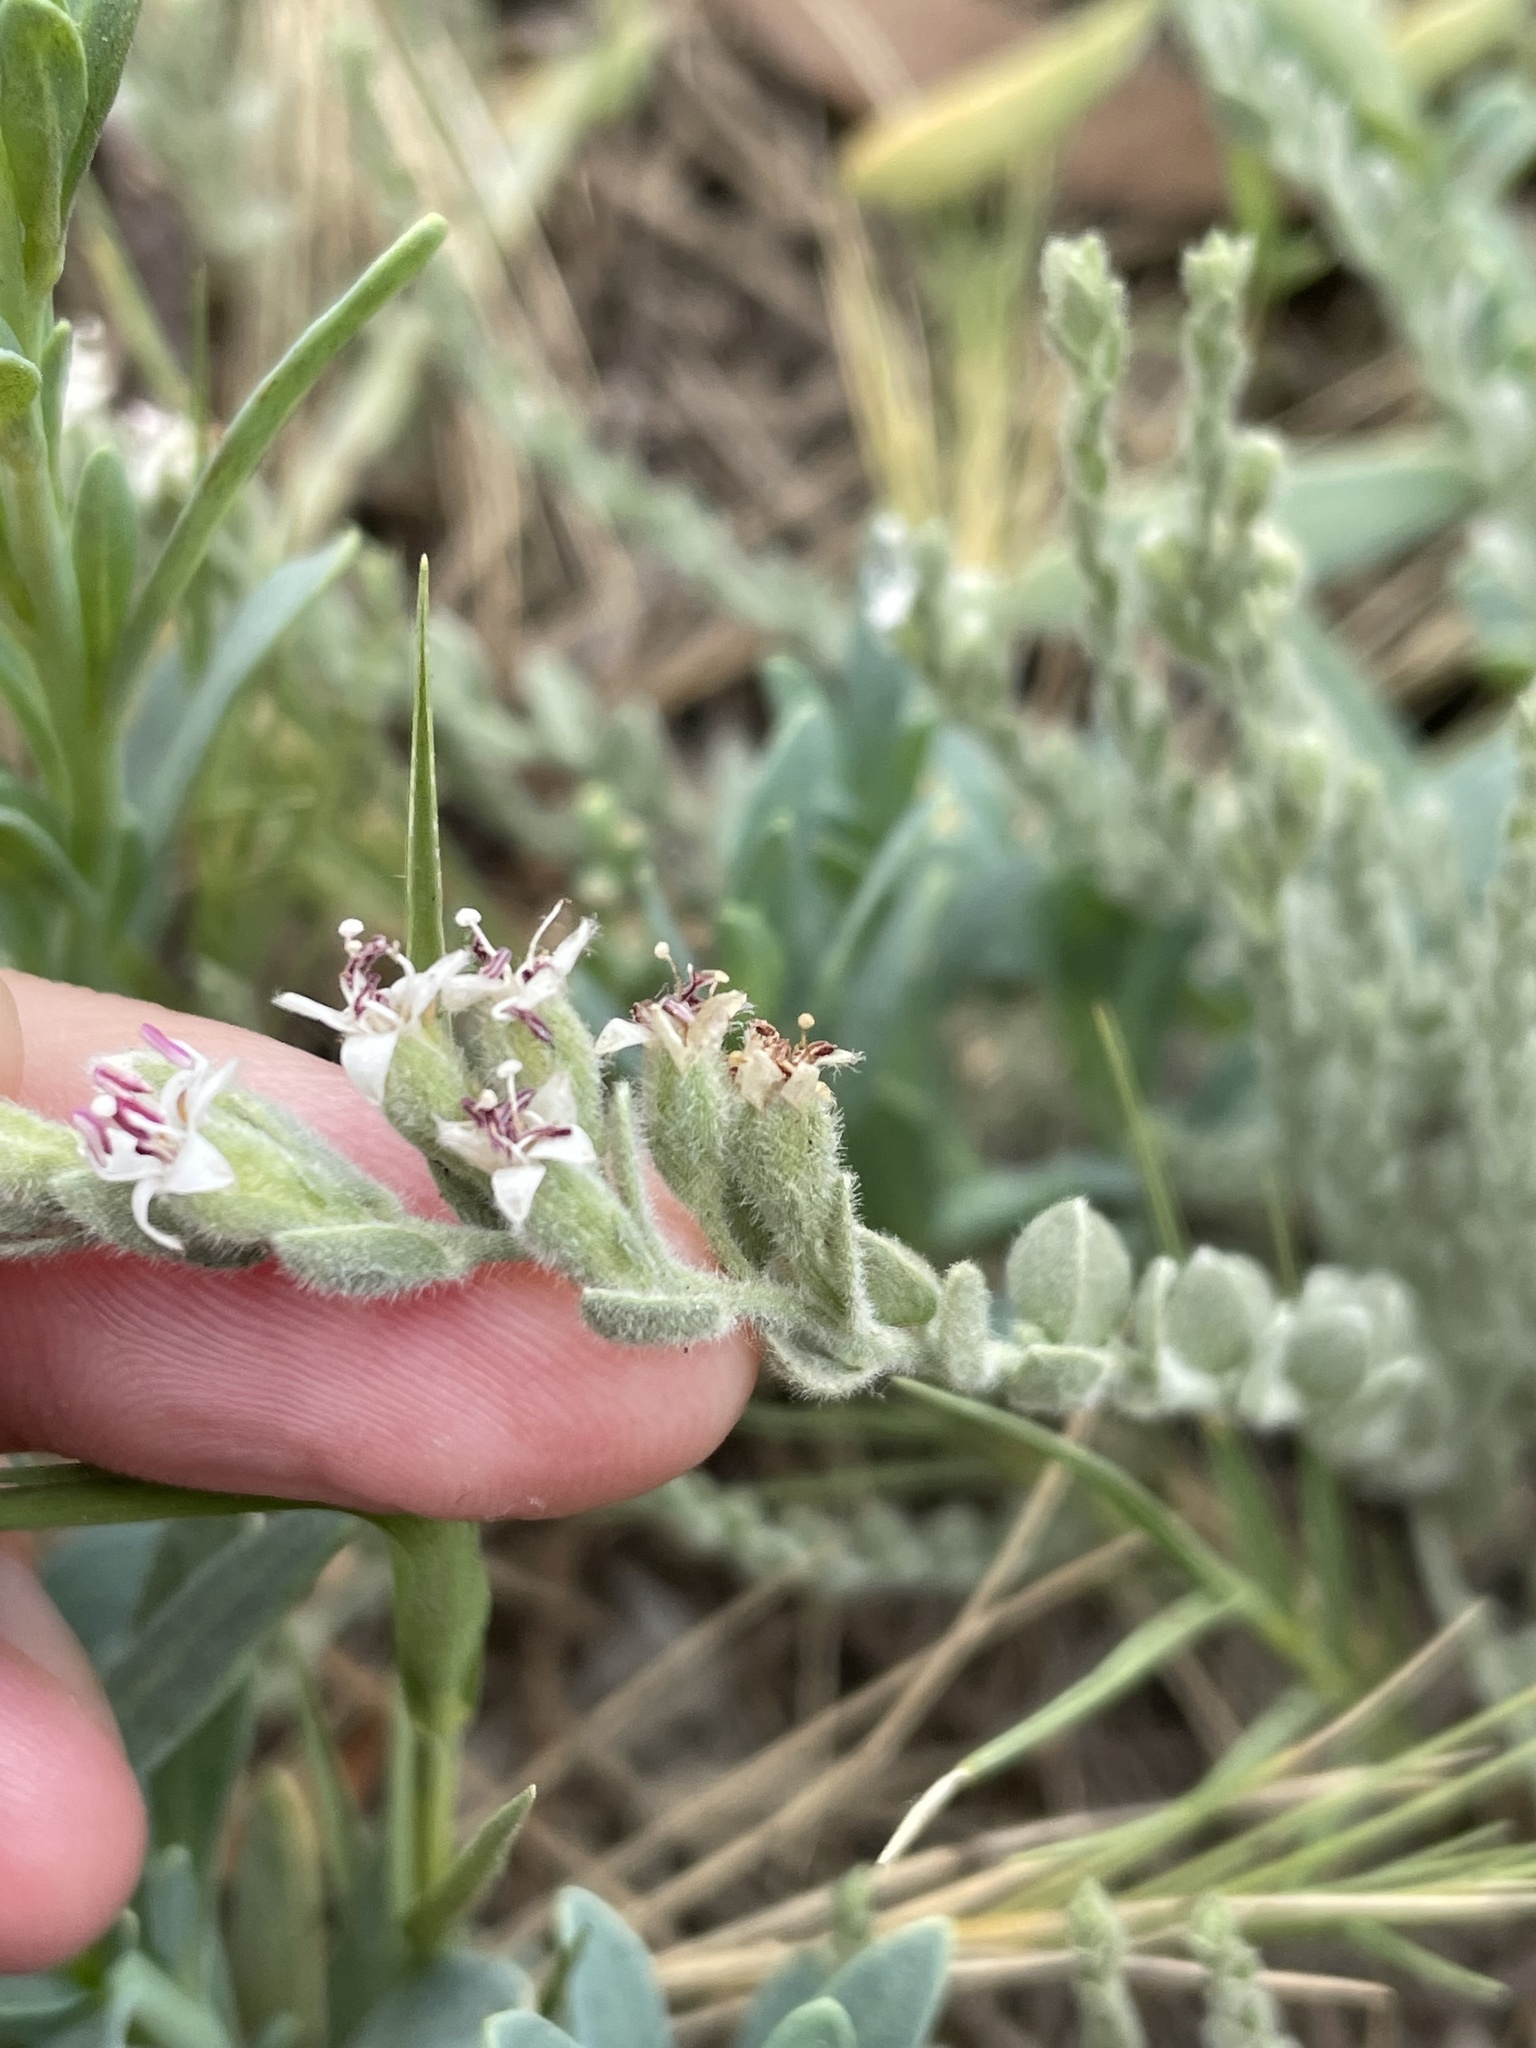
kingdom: Plantae
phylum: Tracheophyta
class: Magnoliopsida
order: Solanales
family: Convolvulaceae
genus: Cressa
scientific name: Cressa truxillensis
